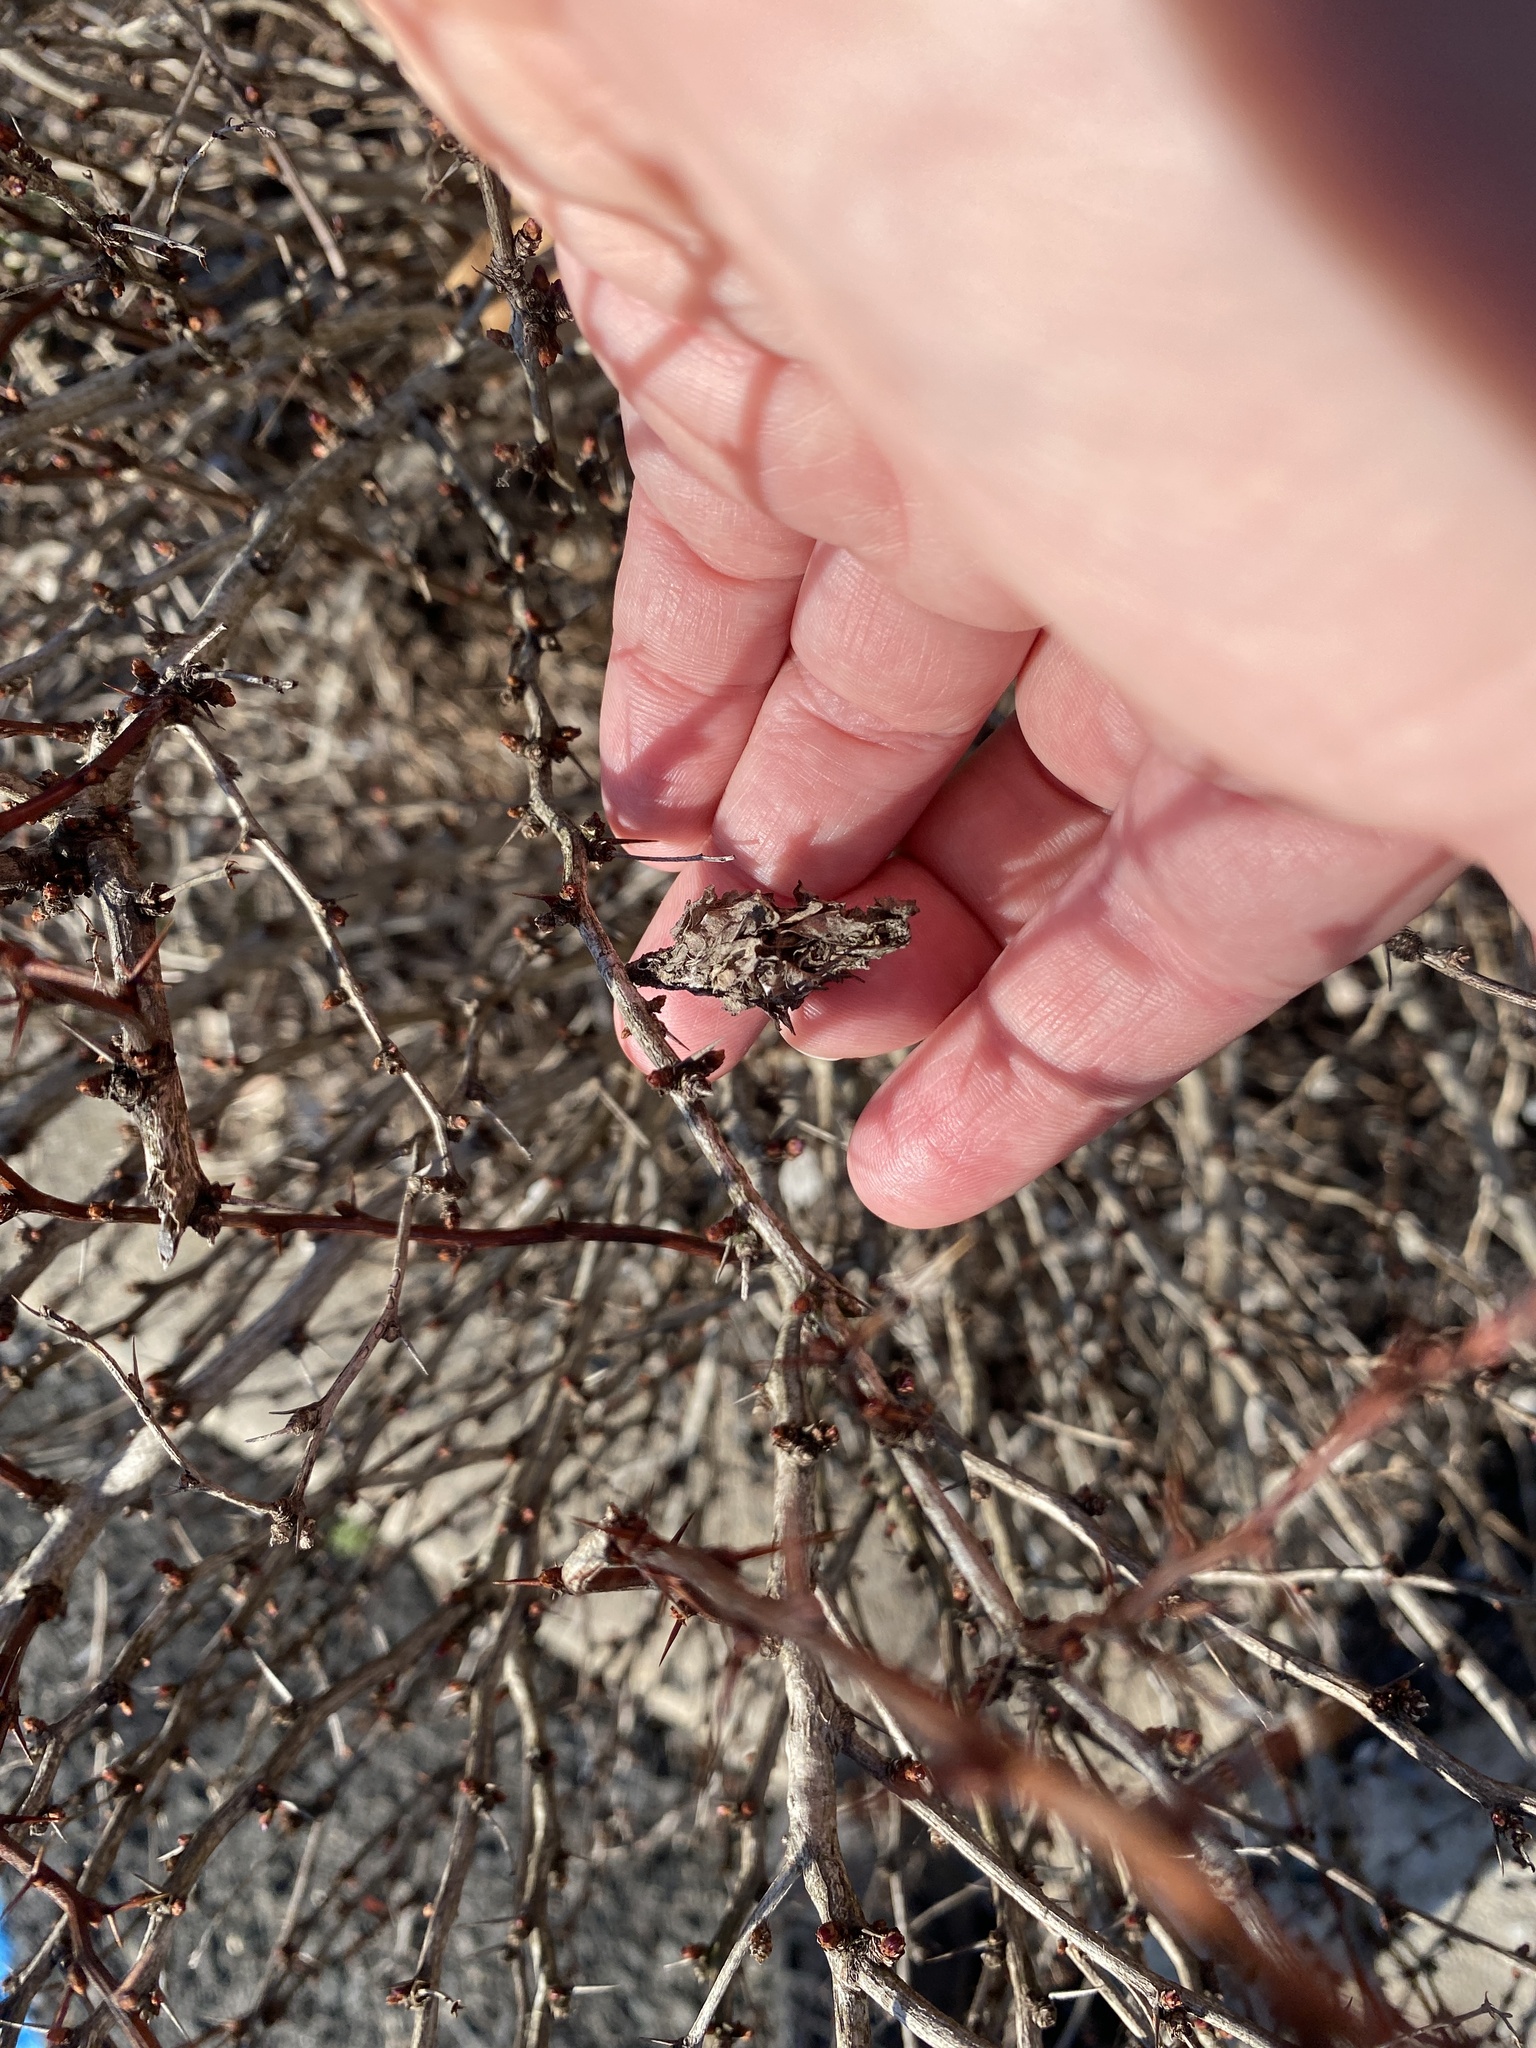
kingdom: Animalia
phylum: Arthropoda
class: Insecta
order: Lepidoptera
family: Psychidae
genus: Thyridopteryx
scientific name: Thyridopteryx ephemeraeformis
